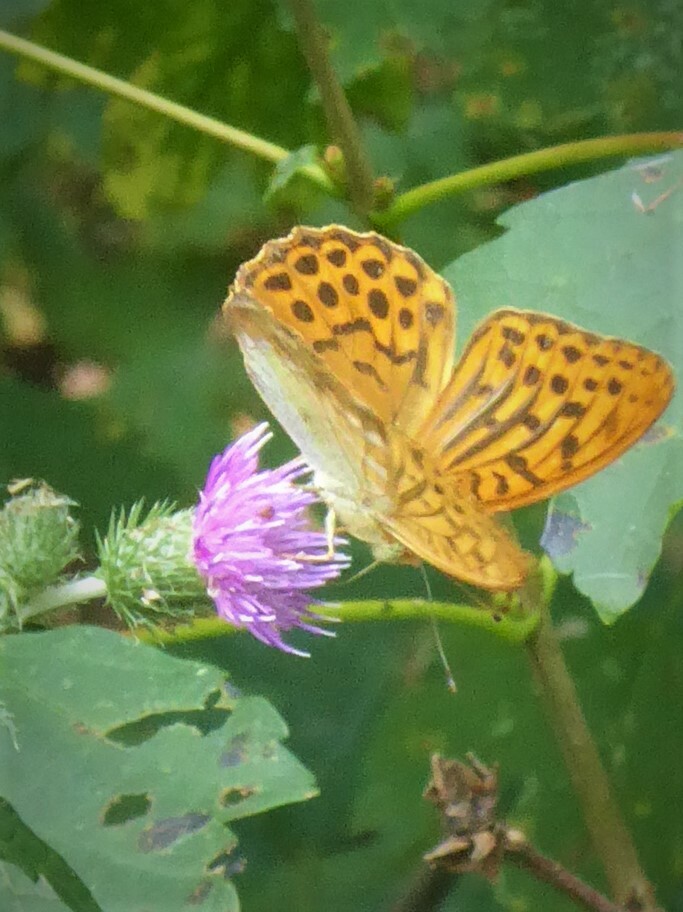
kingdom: Animalia
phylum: Arthropoda
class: Insecta
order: Lepidoptera
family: Nymphalidae
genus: Argynnis
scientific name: Argynnis paphia
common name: Silver-washed fritillary
